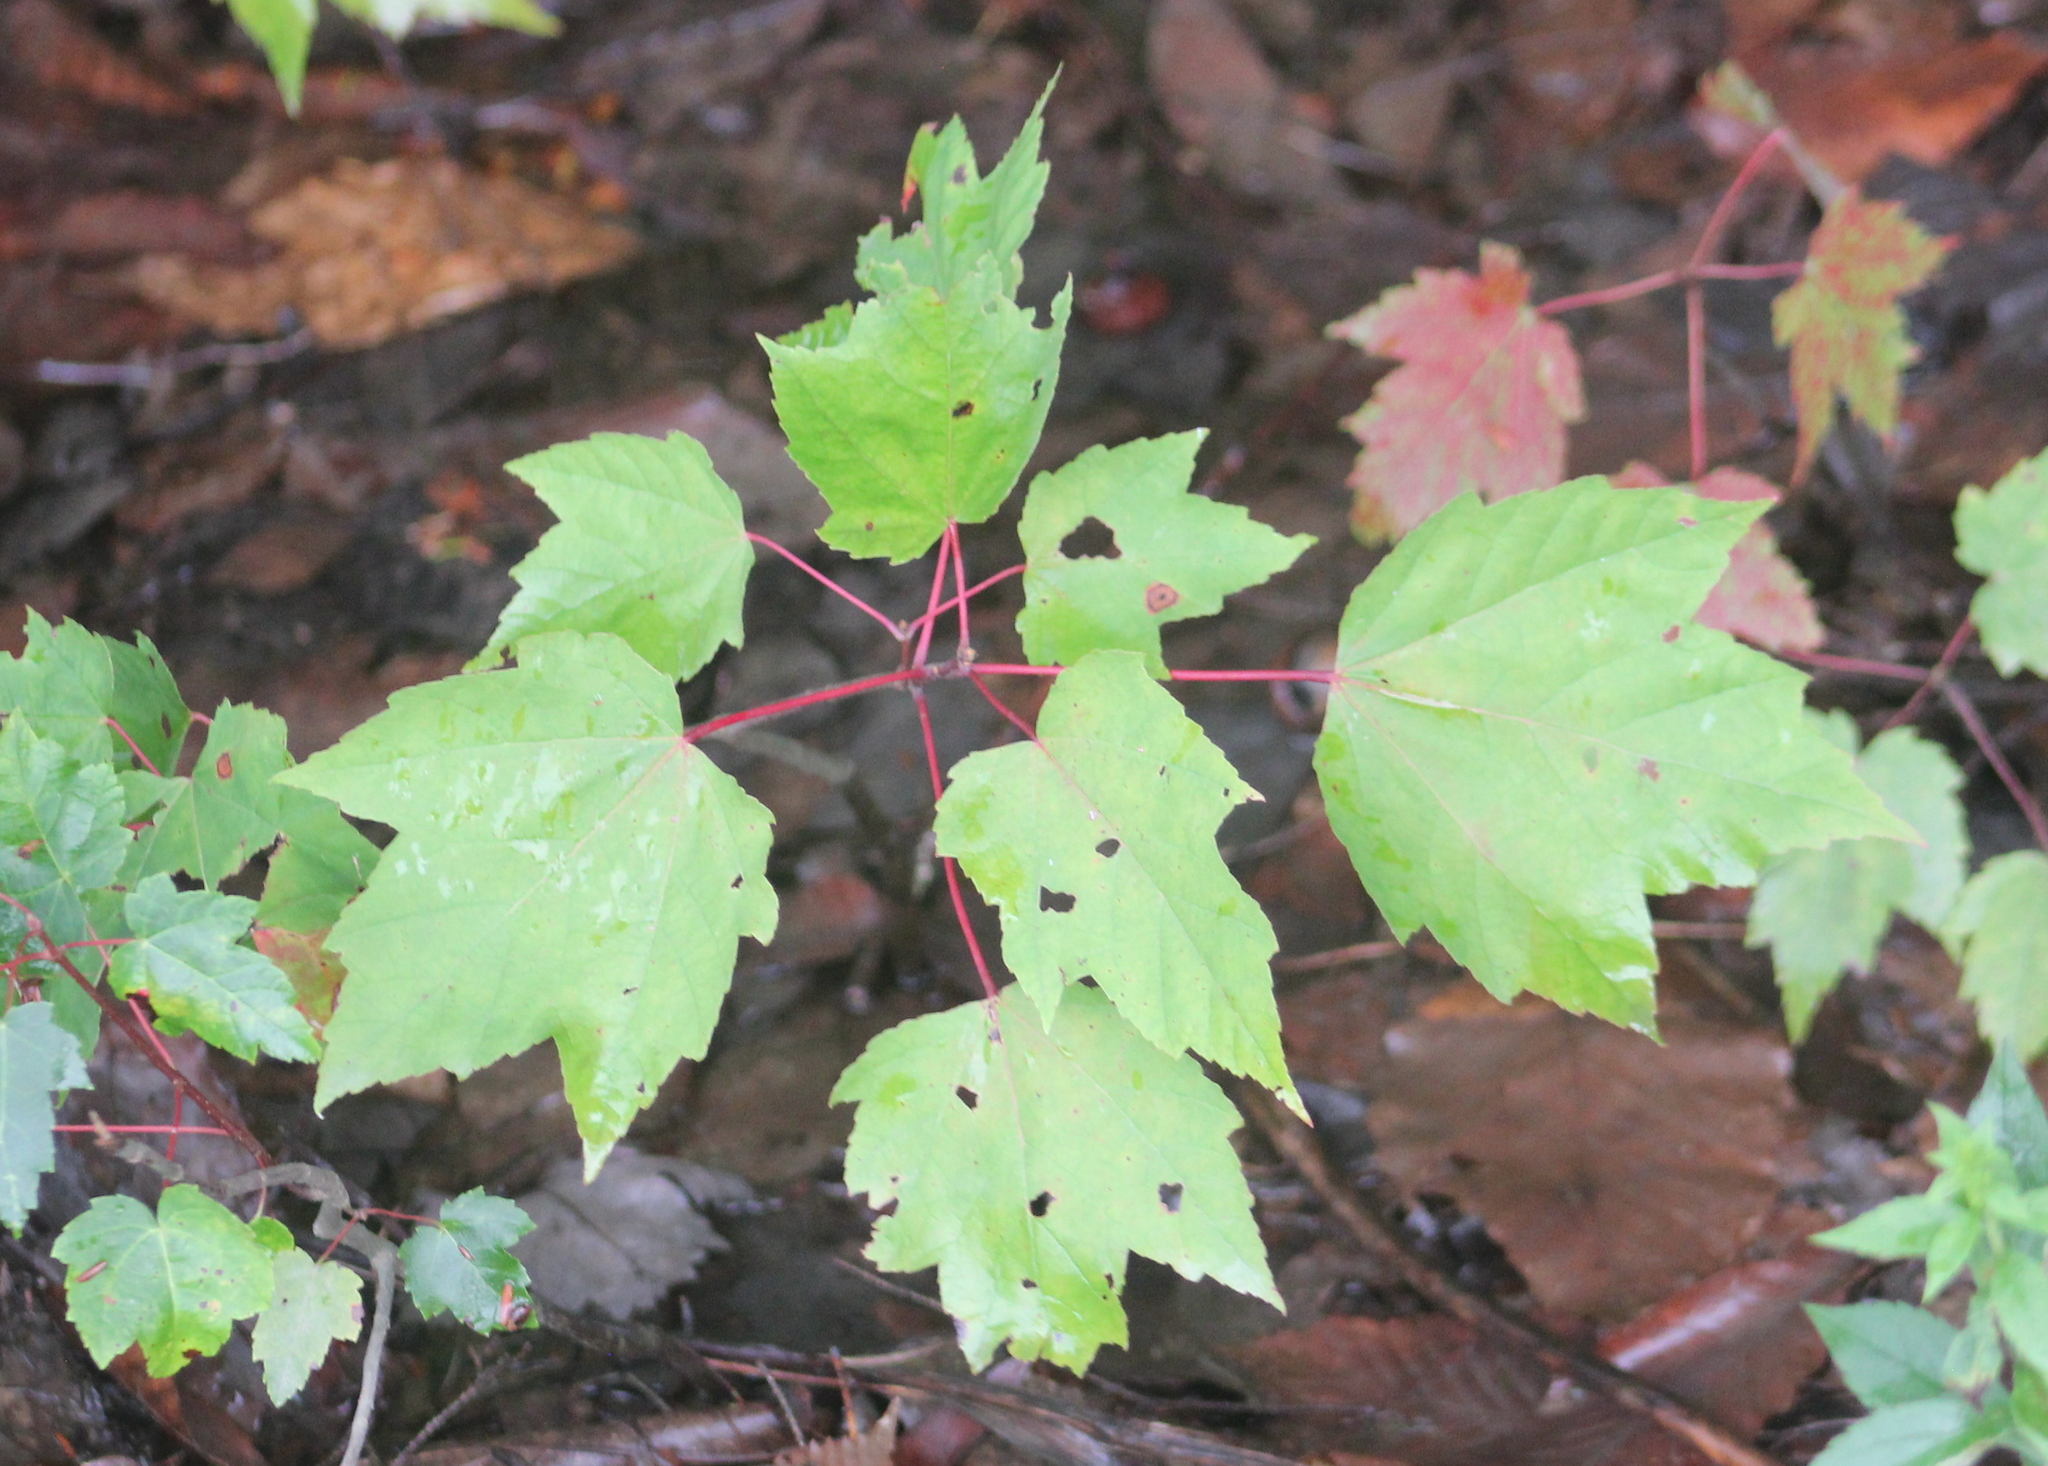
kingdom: Plantae
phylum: Tracheophyta
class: Magnoliopsida
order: Sapindales
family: Sapindaceae
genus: Acer
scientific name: Acer rubrum
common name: Red maple
